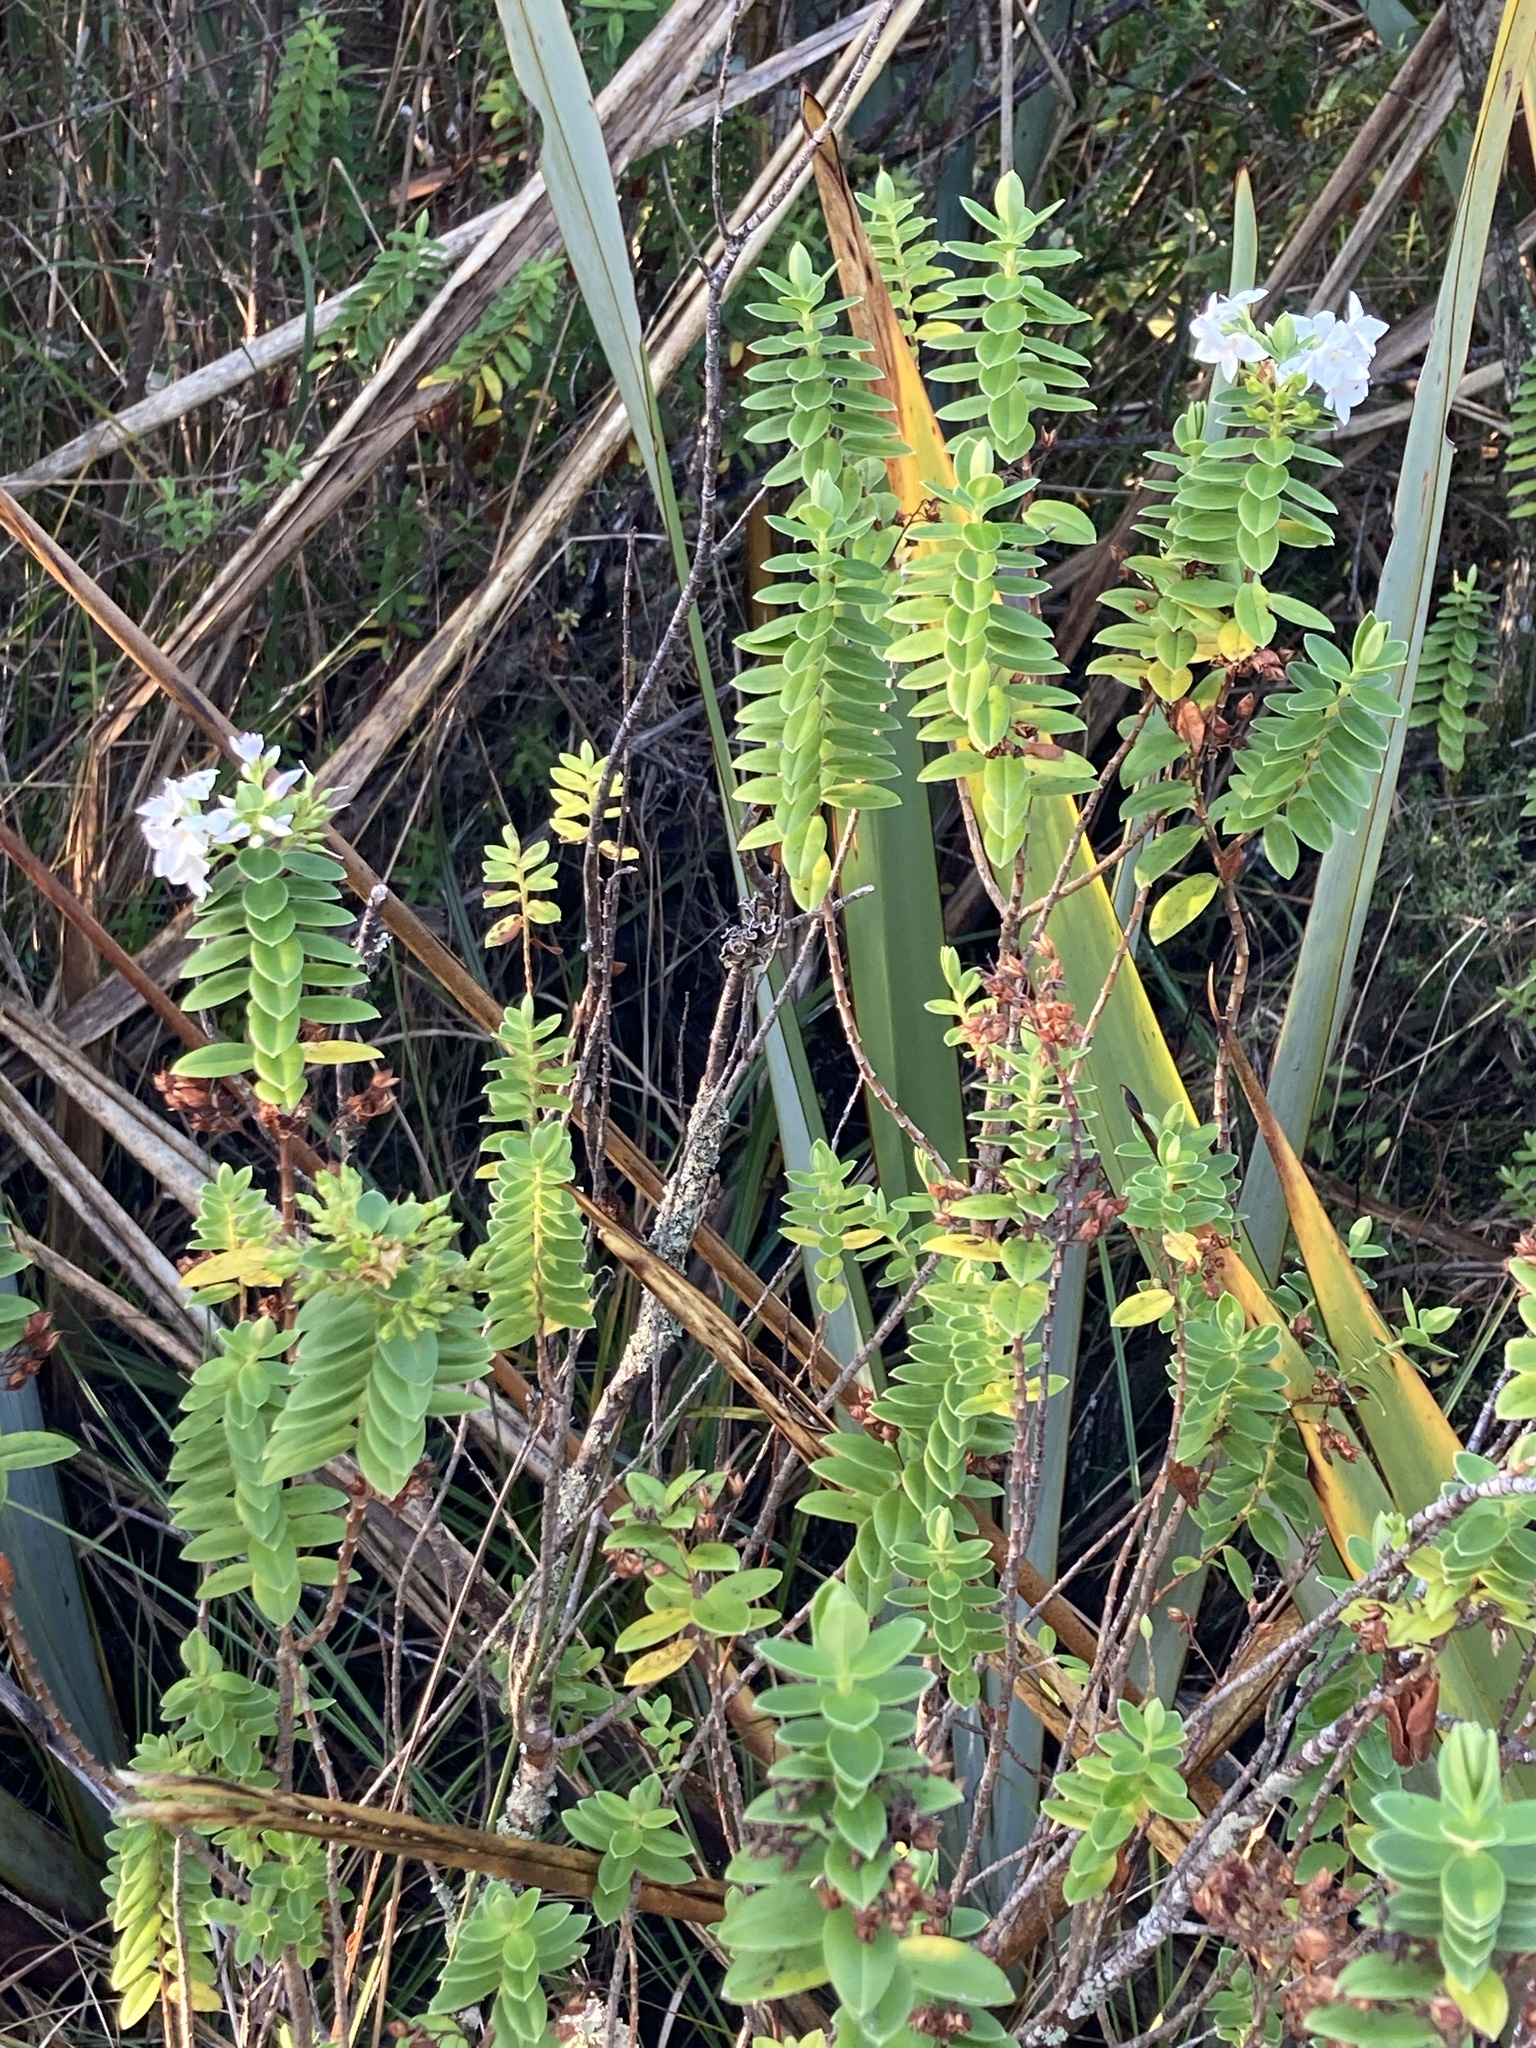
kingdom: Plantae
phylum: Tracheophyta
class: Magnoliopsida
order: Lamiales
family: Plantaginaceae
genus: Veronica
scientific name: Veronica elliptica
